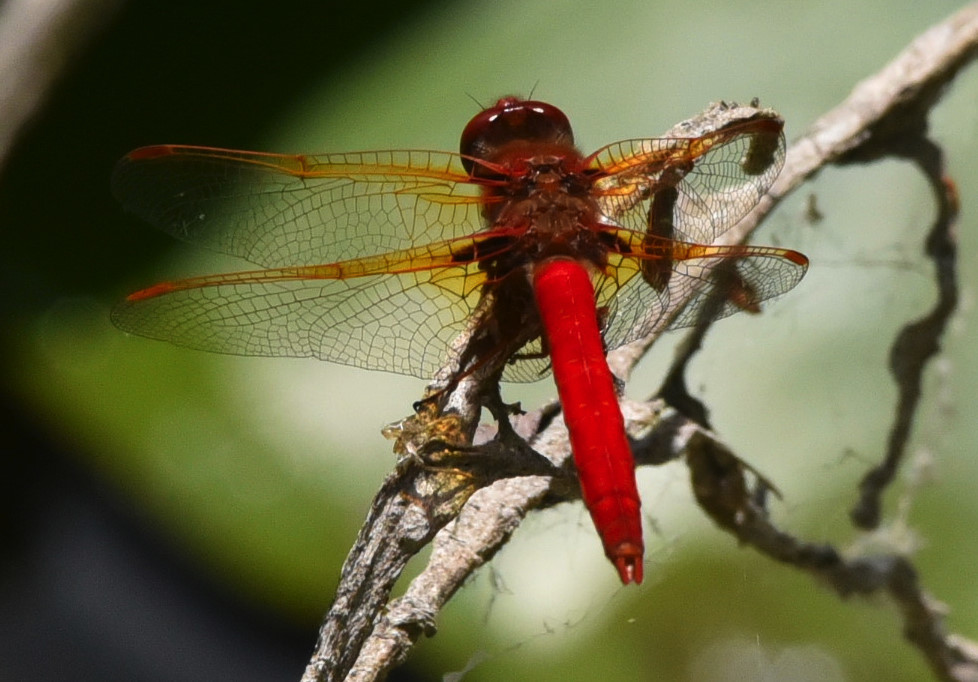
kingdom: Animalia
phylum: Arthropoda
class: Insecta
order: Odonata
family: Libellulidae
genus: Sympetrum
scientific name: Sympetrum illotum
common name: Cardinal meadowhawk
